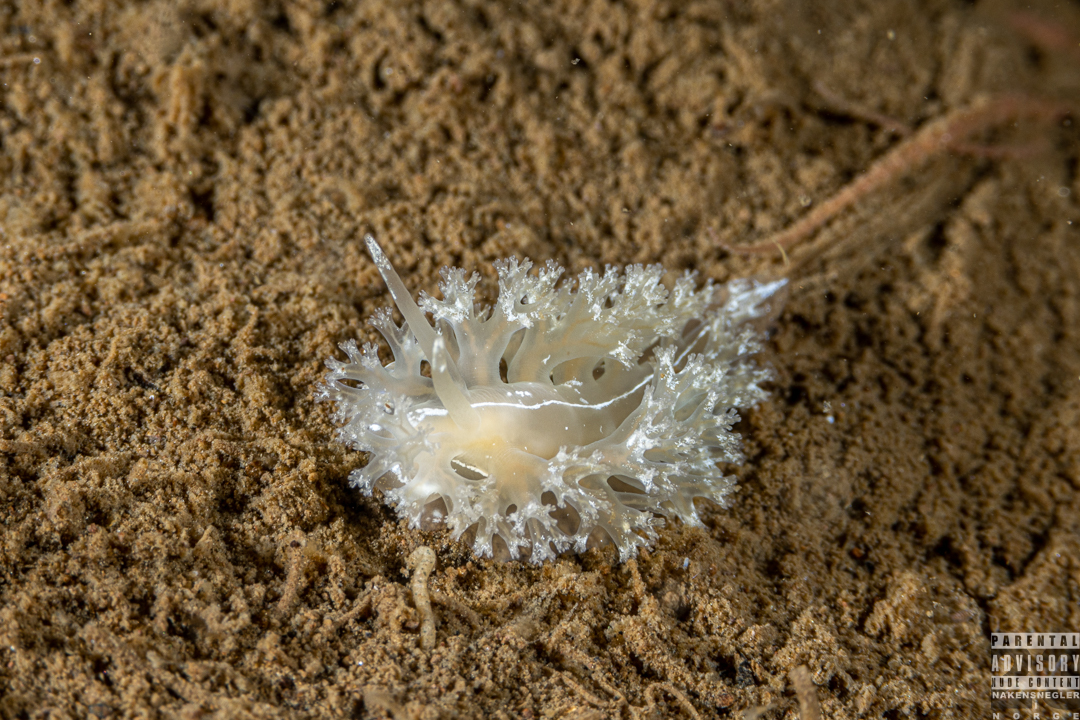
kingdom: Animalia
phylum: Mollusca
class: Gastropoda
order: Nudibranchia
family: Heroidae
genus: Hero
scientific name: Hero formosa
